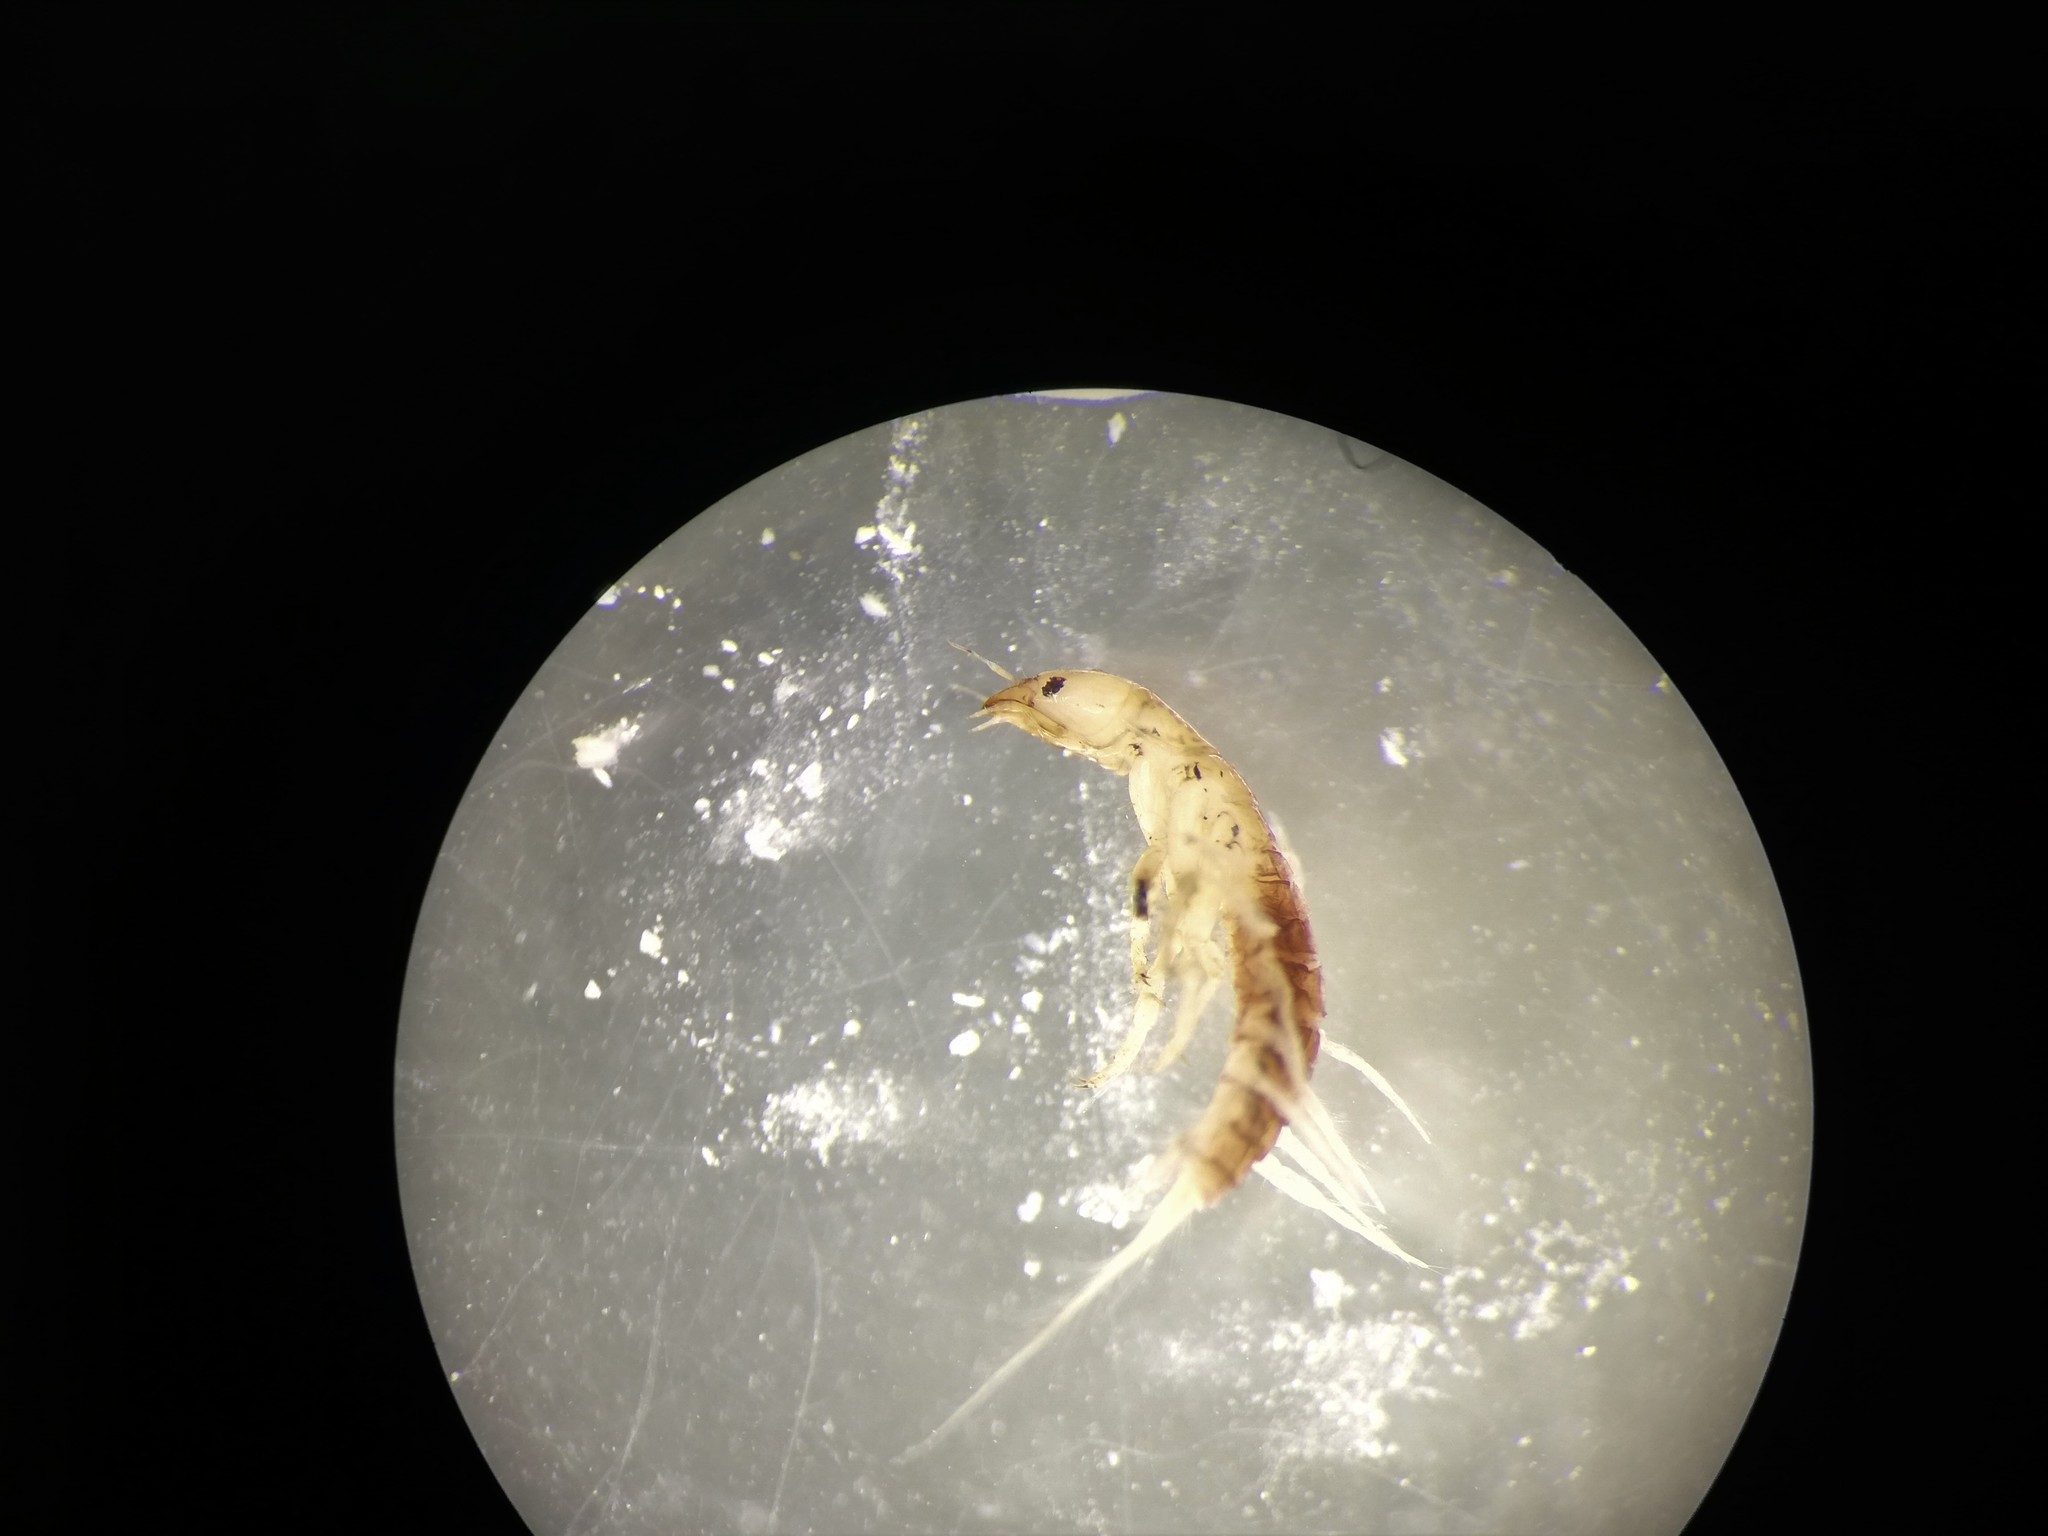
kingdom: Animalia
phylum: Arthropoda
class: Insecta
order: Megaloptera
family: Sialidae
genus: Sialis
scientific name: Sialis nigripes
